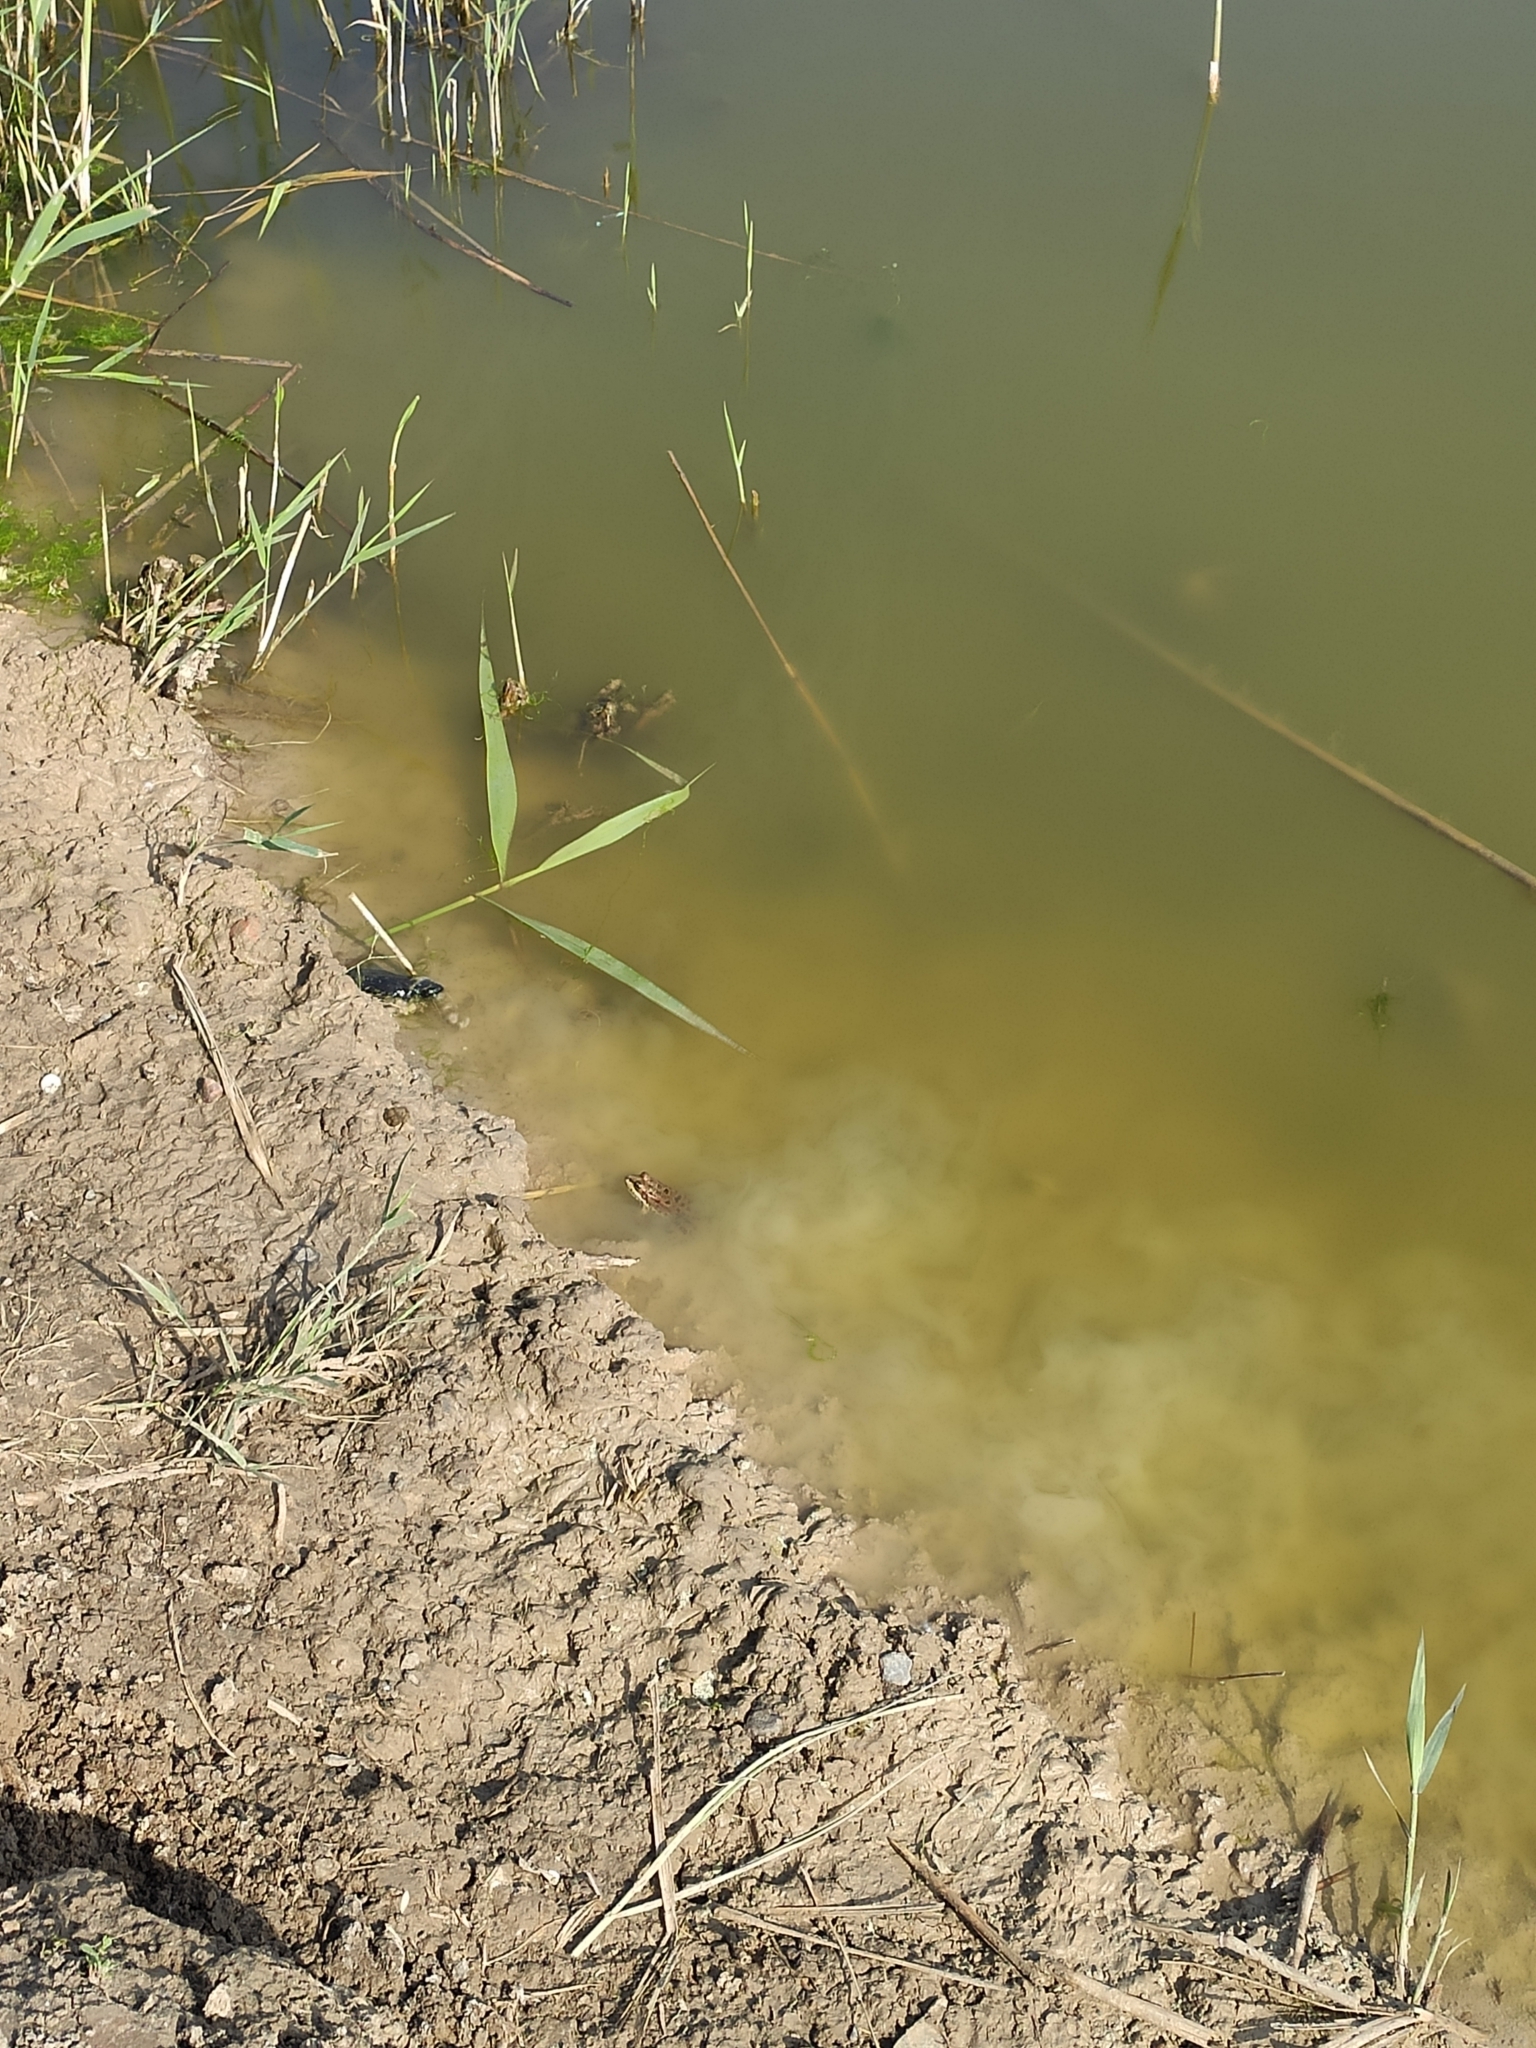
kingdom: Animalia
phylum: Chordata
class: Amphibia
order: Anura
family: Ranidae
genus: Pelophylax
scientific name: Pelophylax ridibundus
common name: Marsh frog
